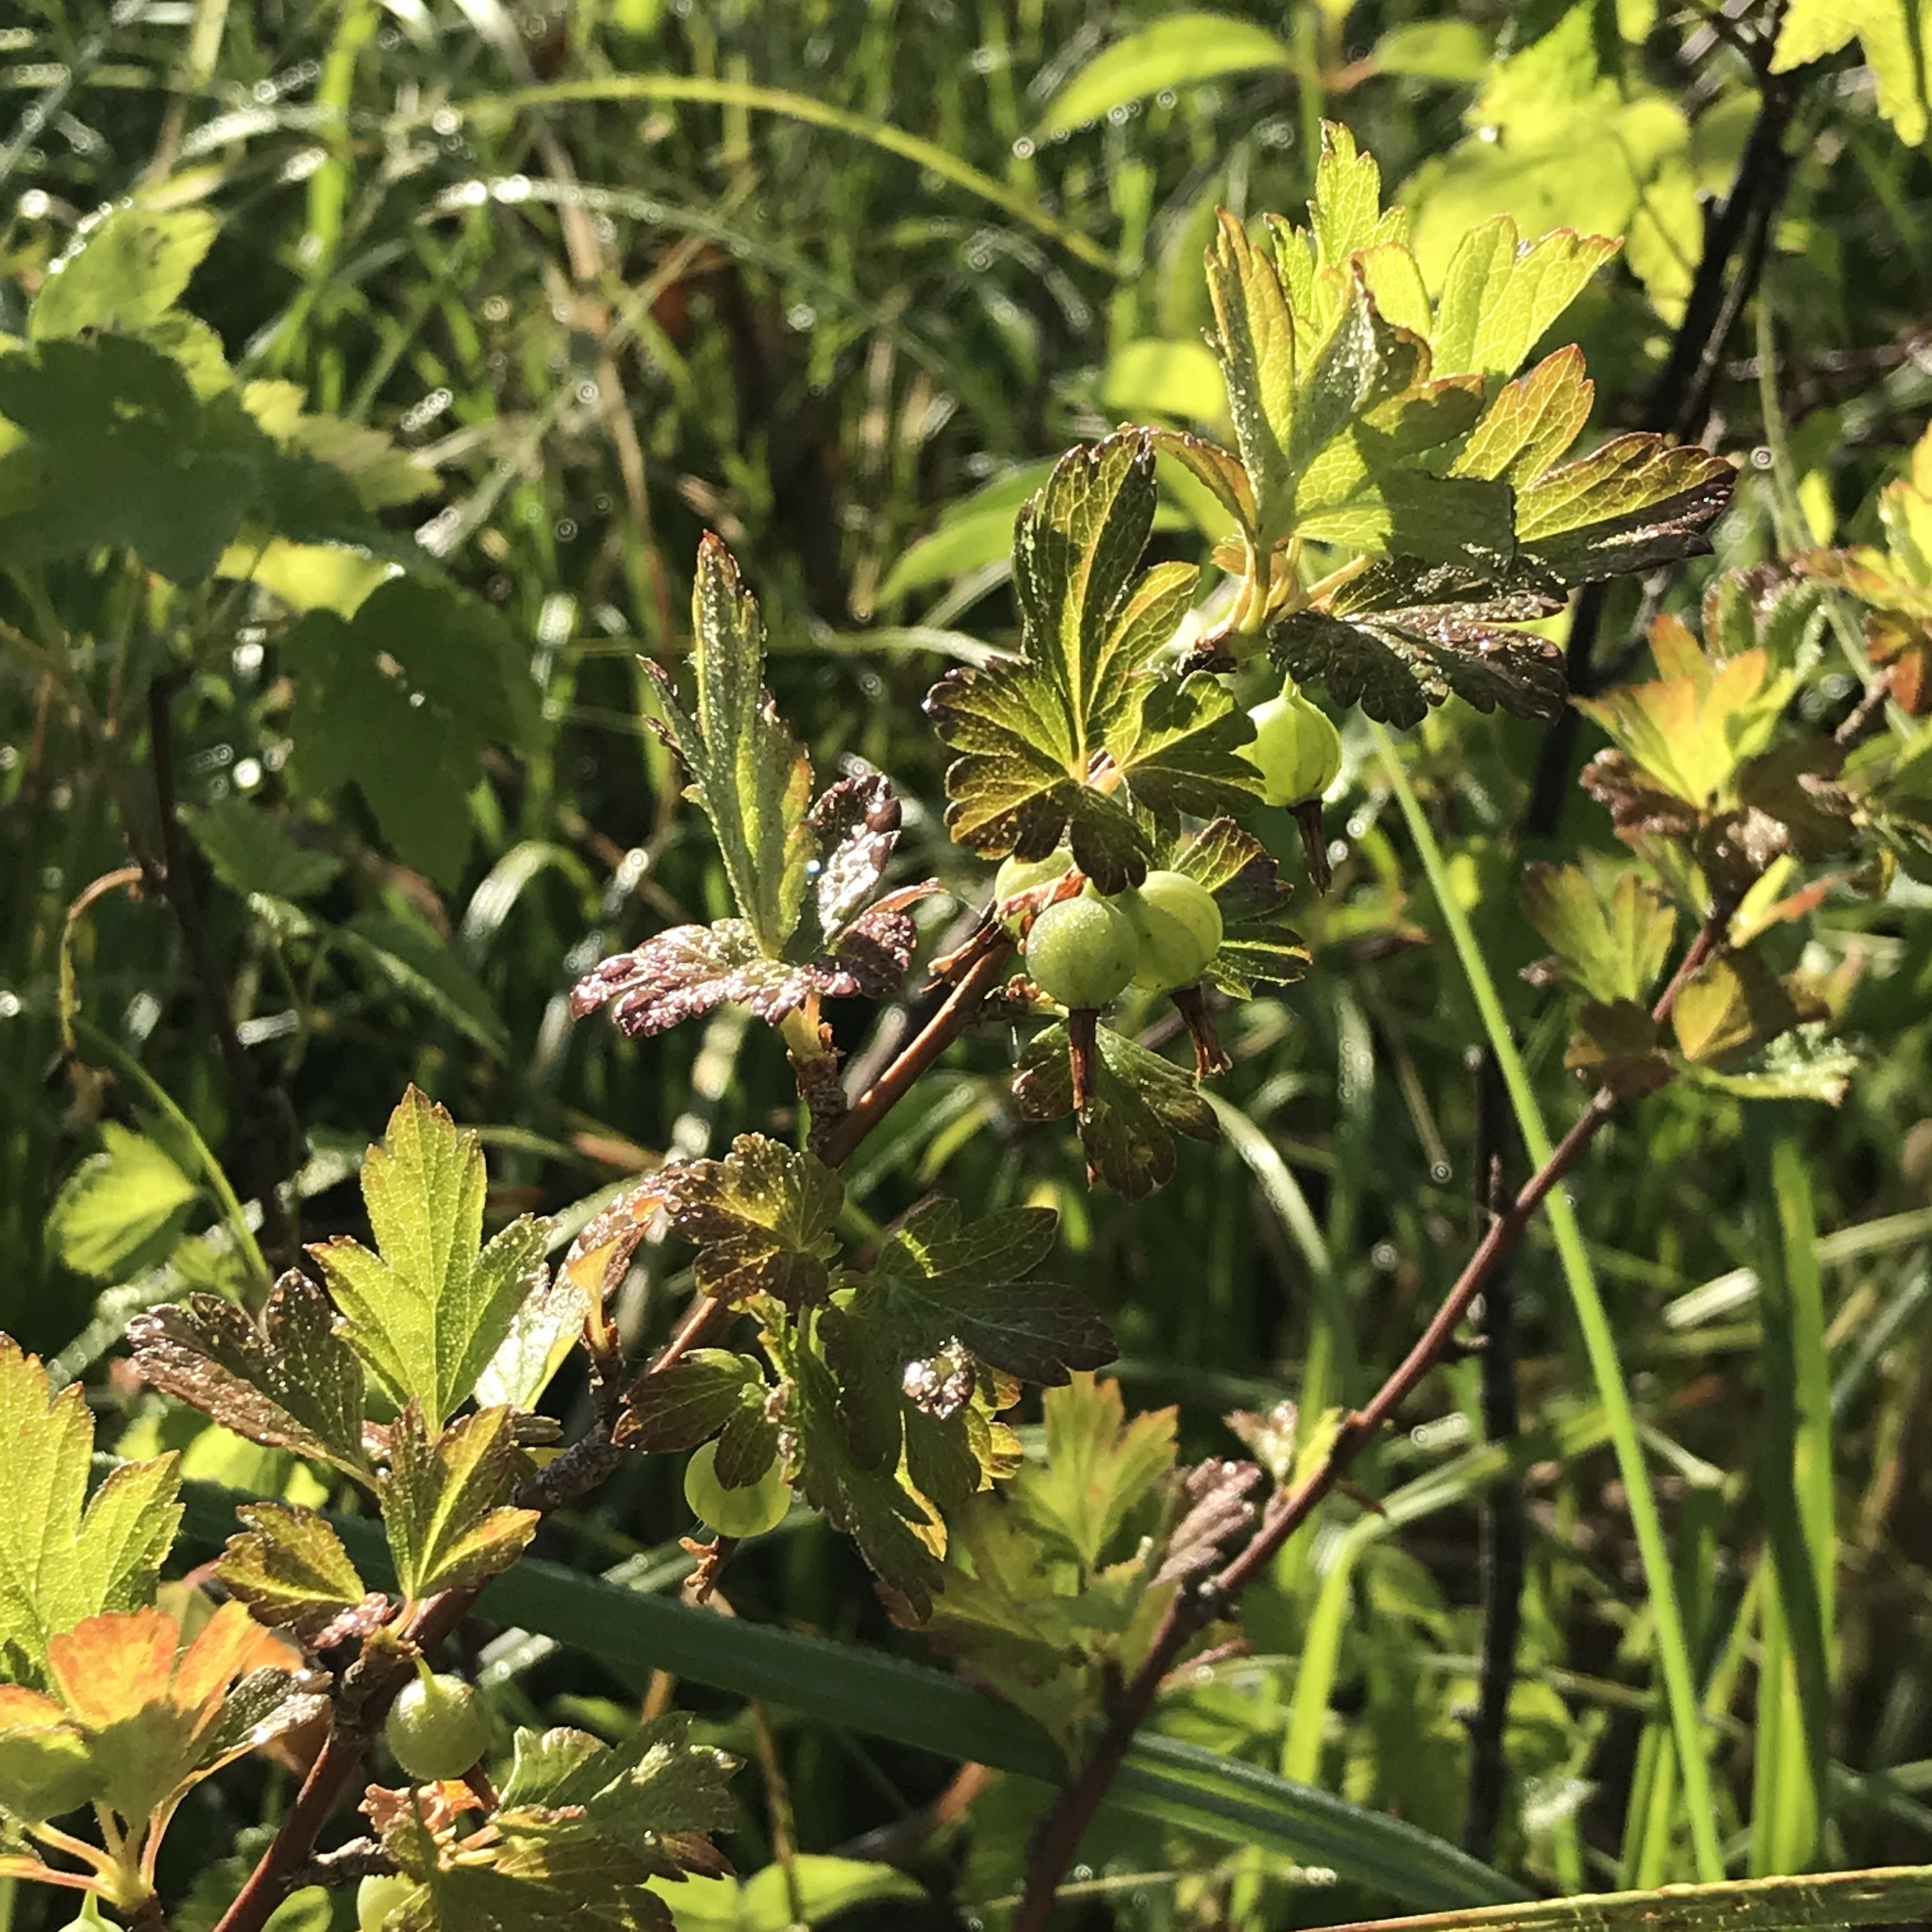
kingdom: Plantae
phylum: Tracheophyta
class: Magnoliopsida
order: Saxifragales
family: Grossulariaceae
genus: Ribes
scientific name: Ribes hirtellum
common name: Hairy gooseberry
